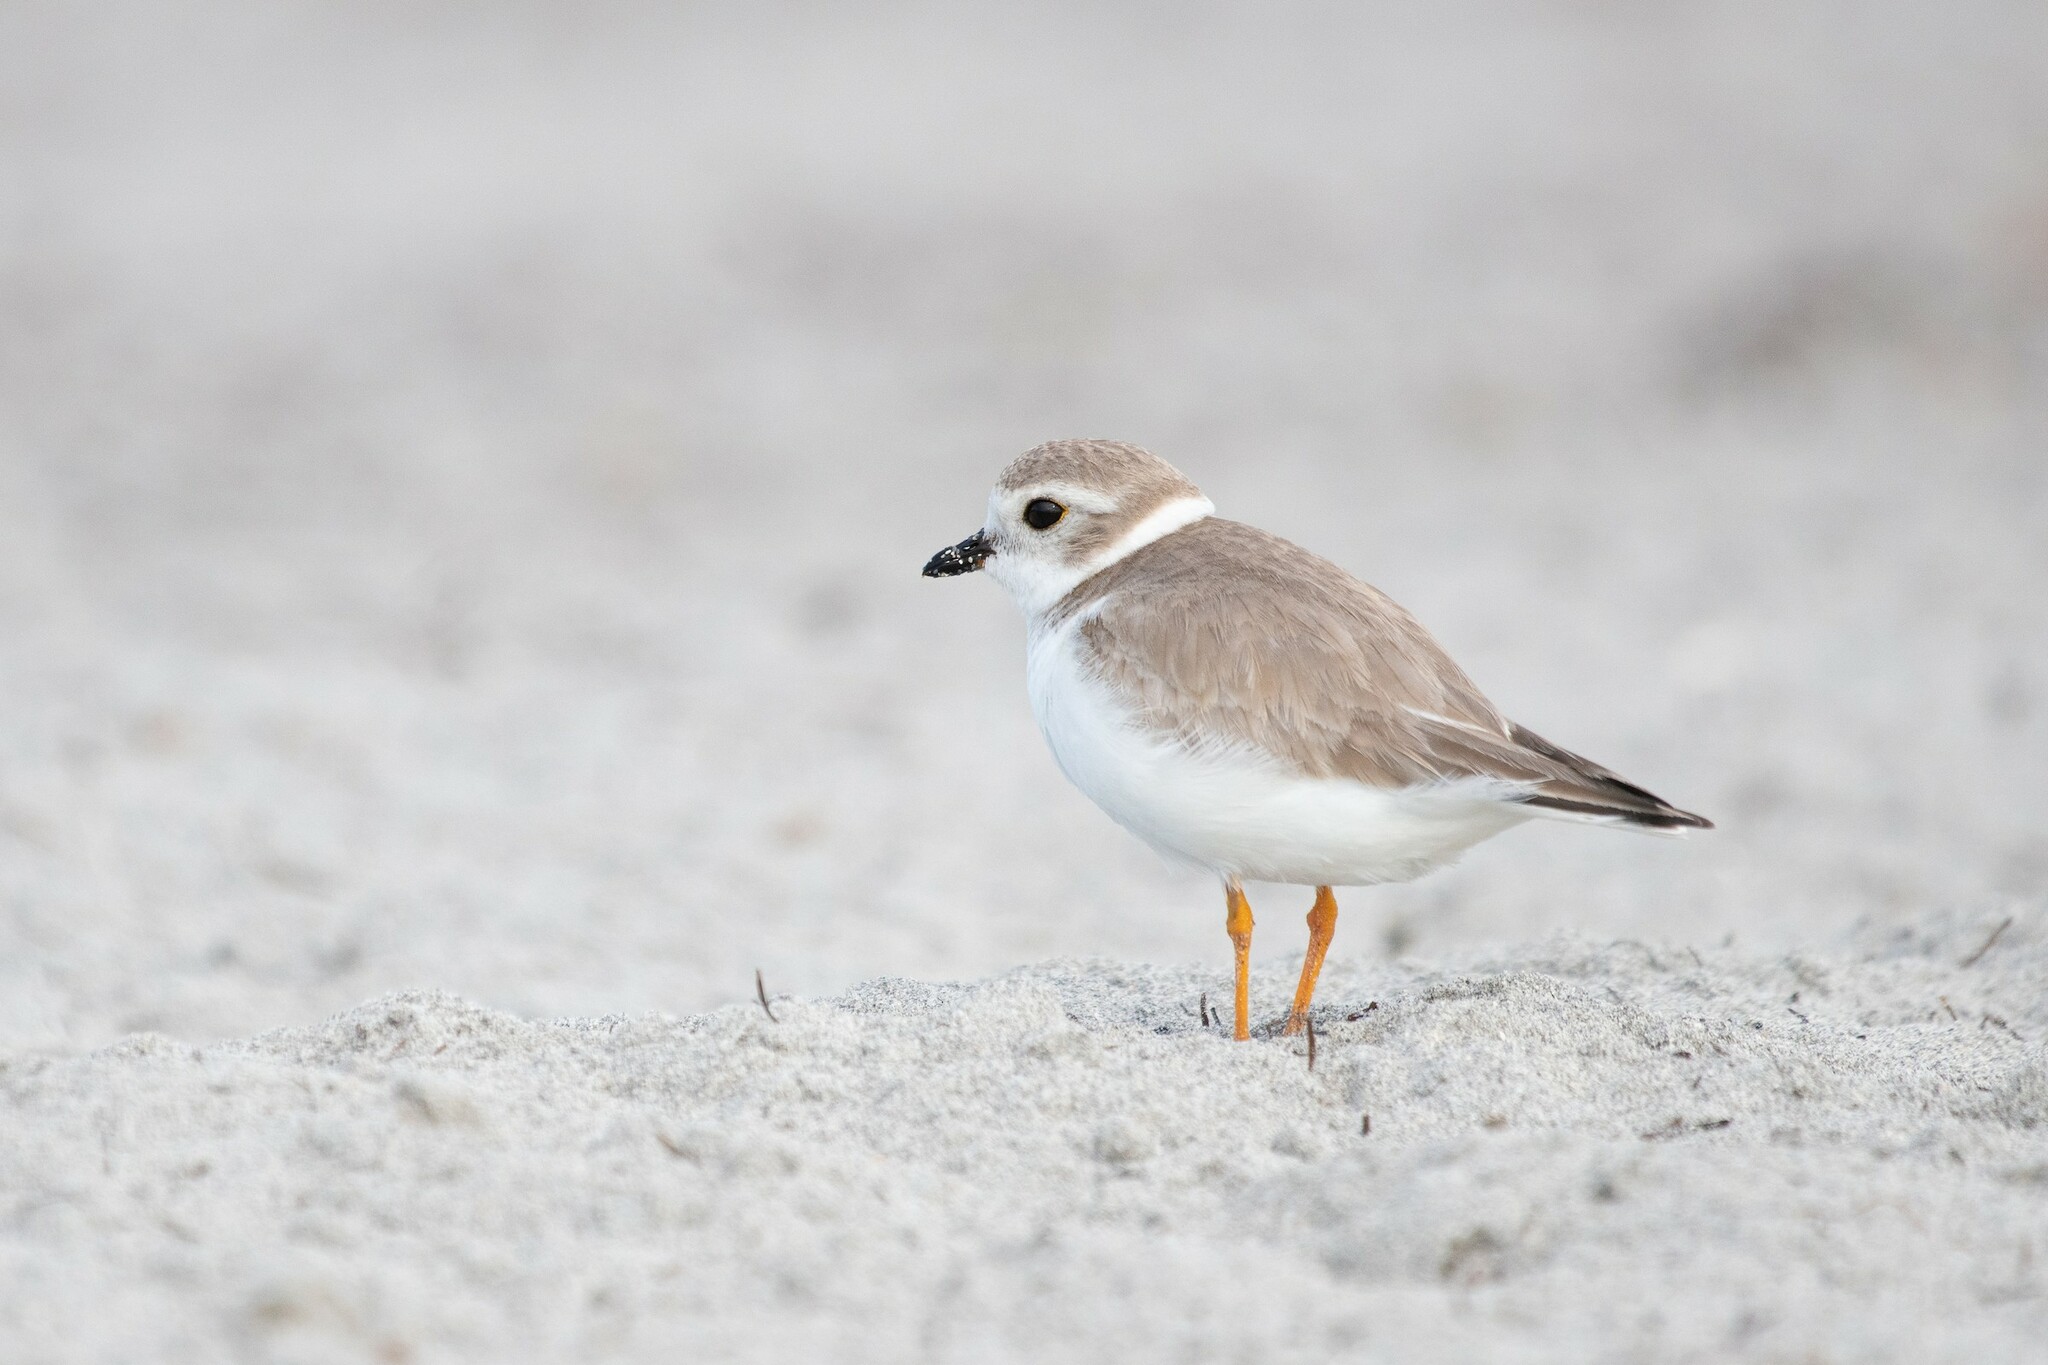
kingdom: Animalia
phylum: Chordata
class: Aves
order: Charadriiformes
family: Charadriidae
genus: Charadrius
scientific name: Charadrius melodus
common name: Piping plover
